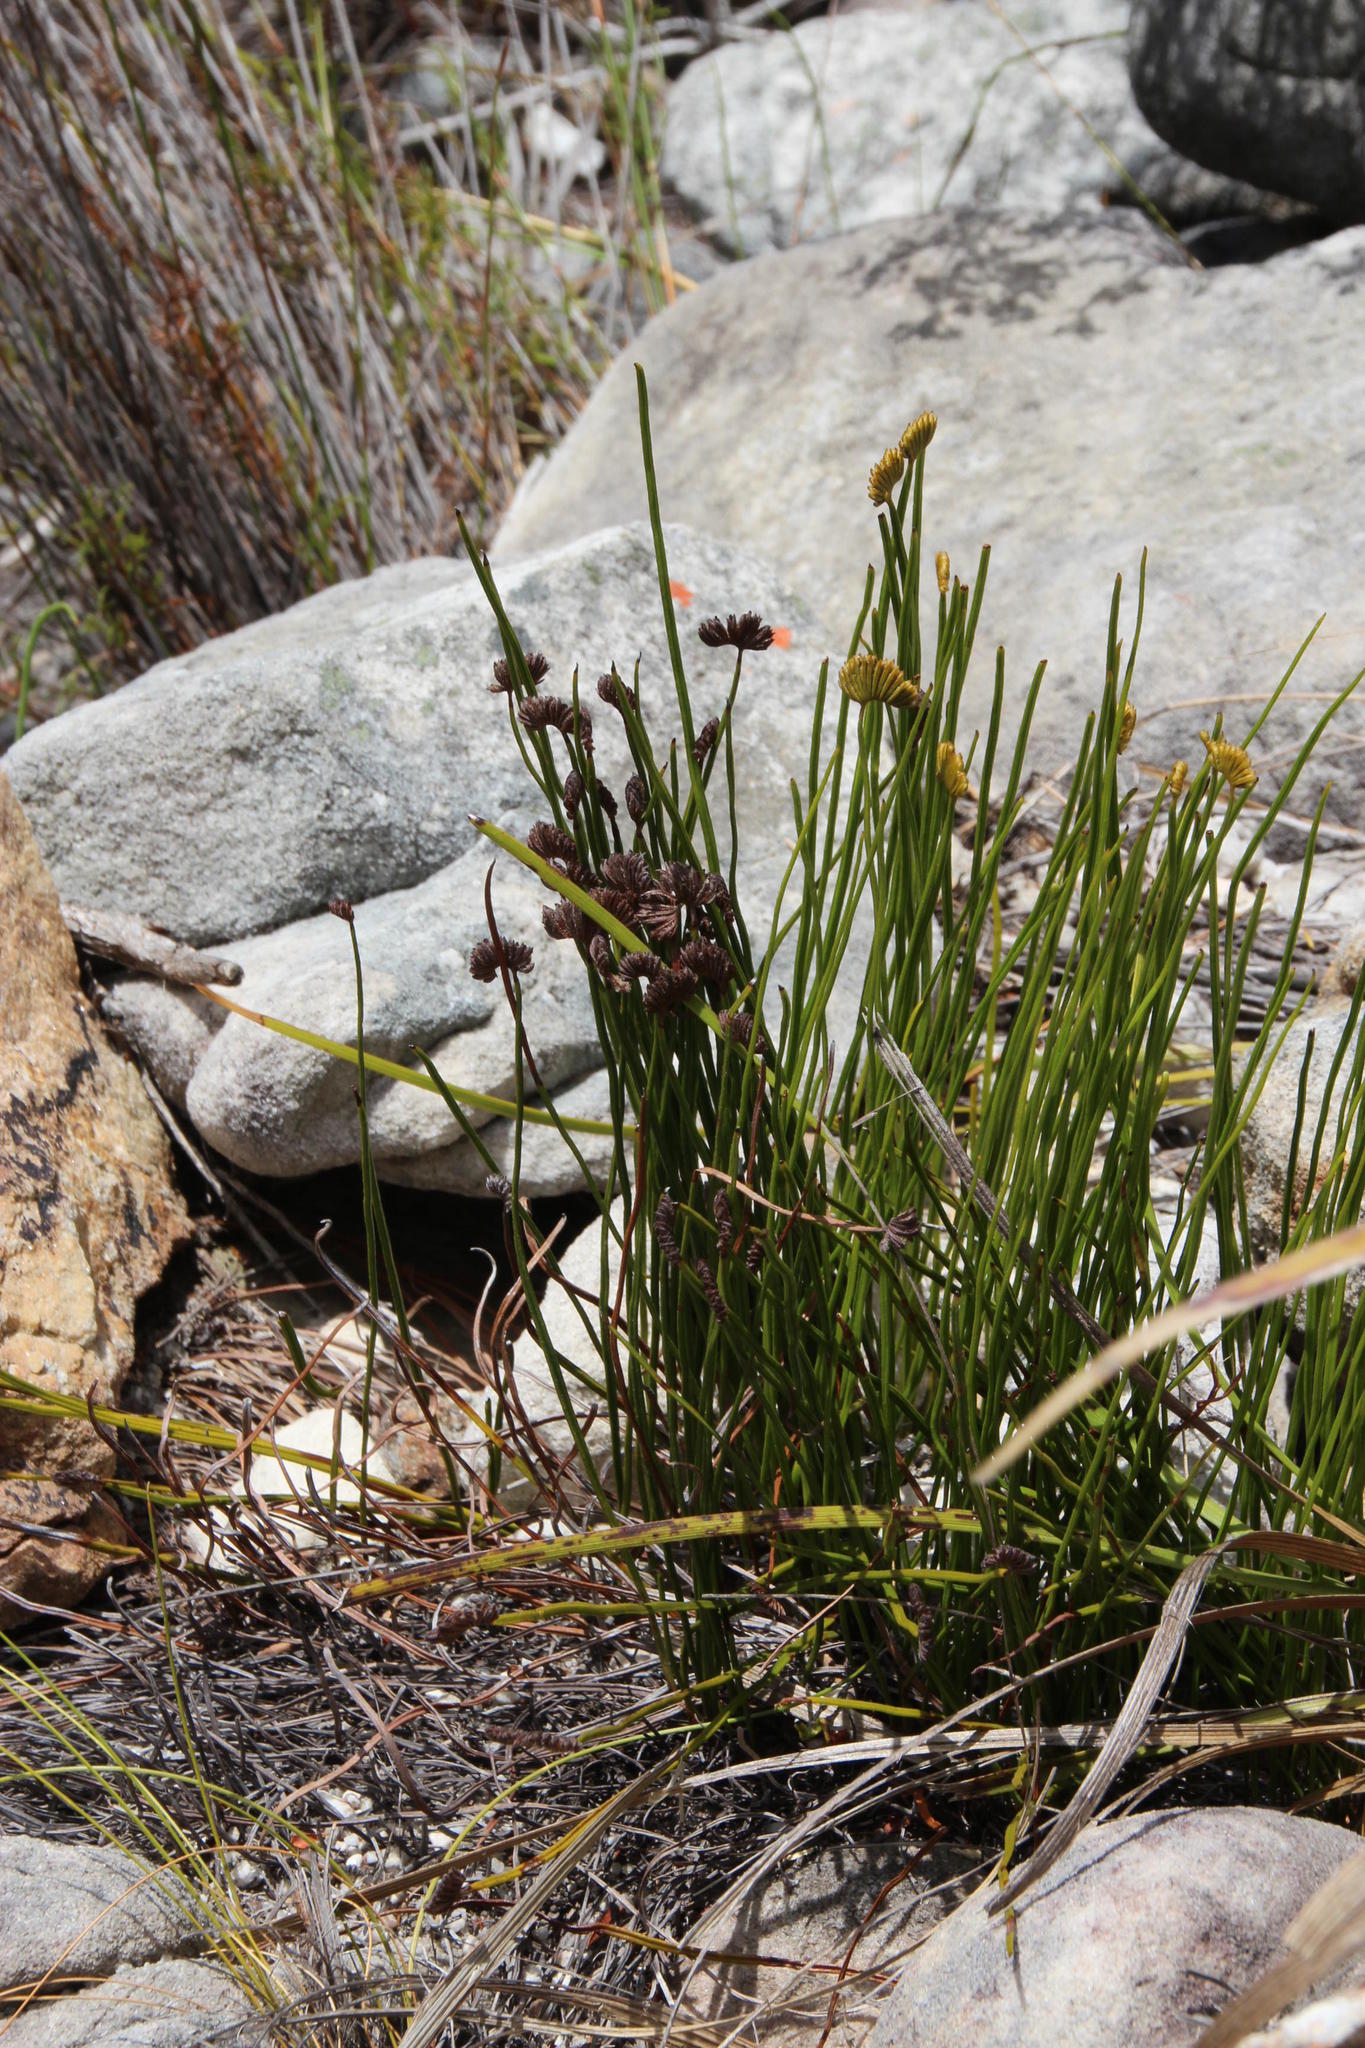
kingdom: Plantae
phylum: Tracheophyta
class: Polypodiopsida
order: Schizaeales
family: Schizaeaceae
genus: Schizaea
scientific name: Schizaea pectinata
